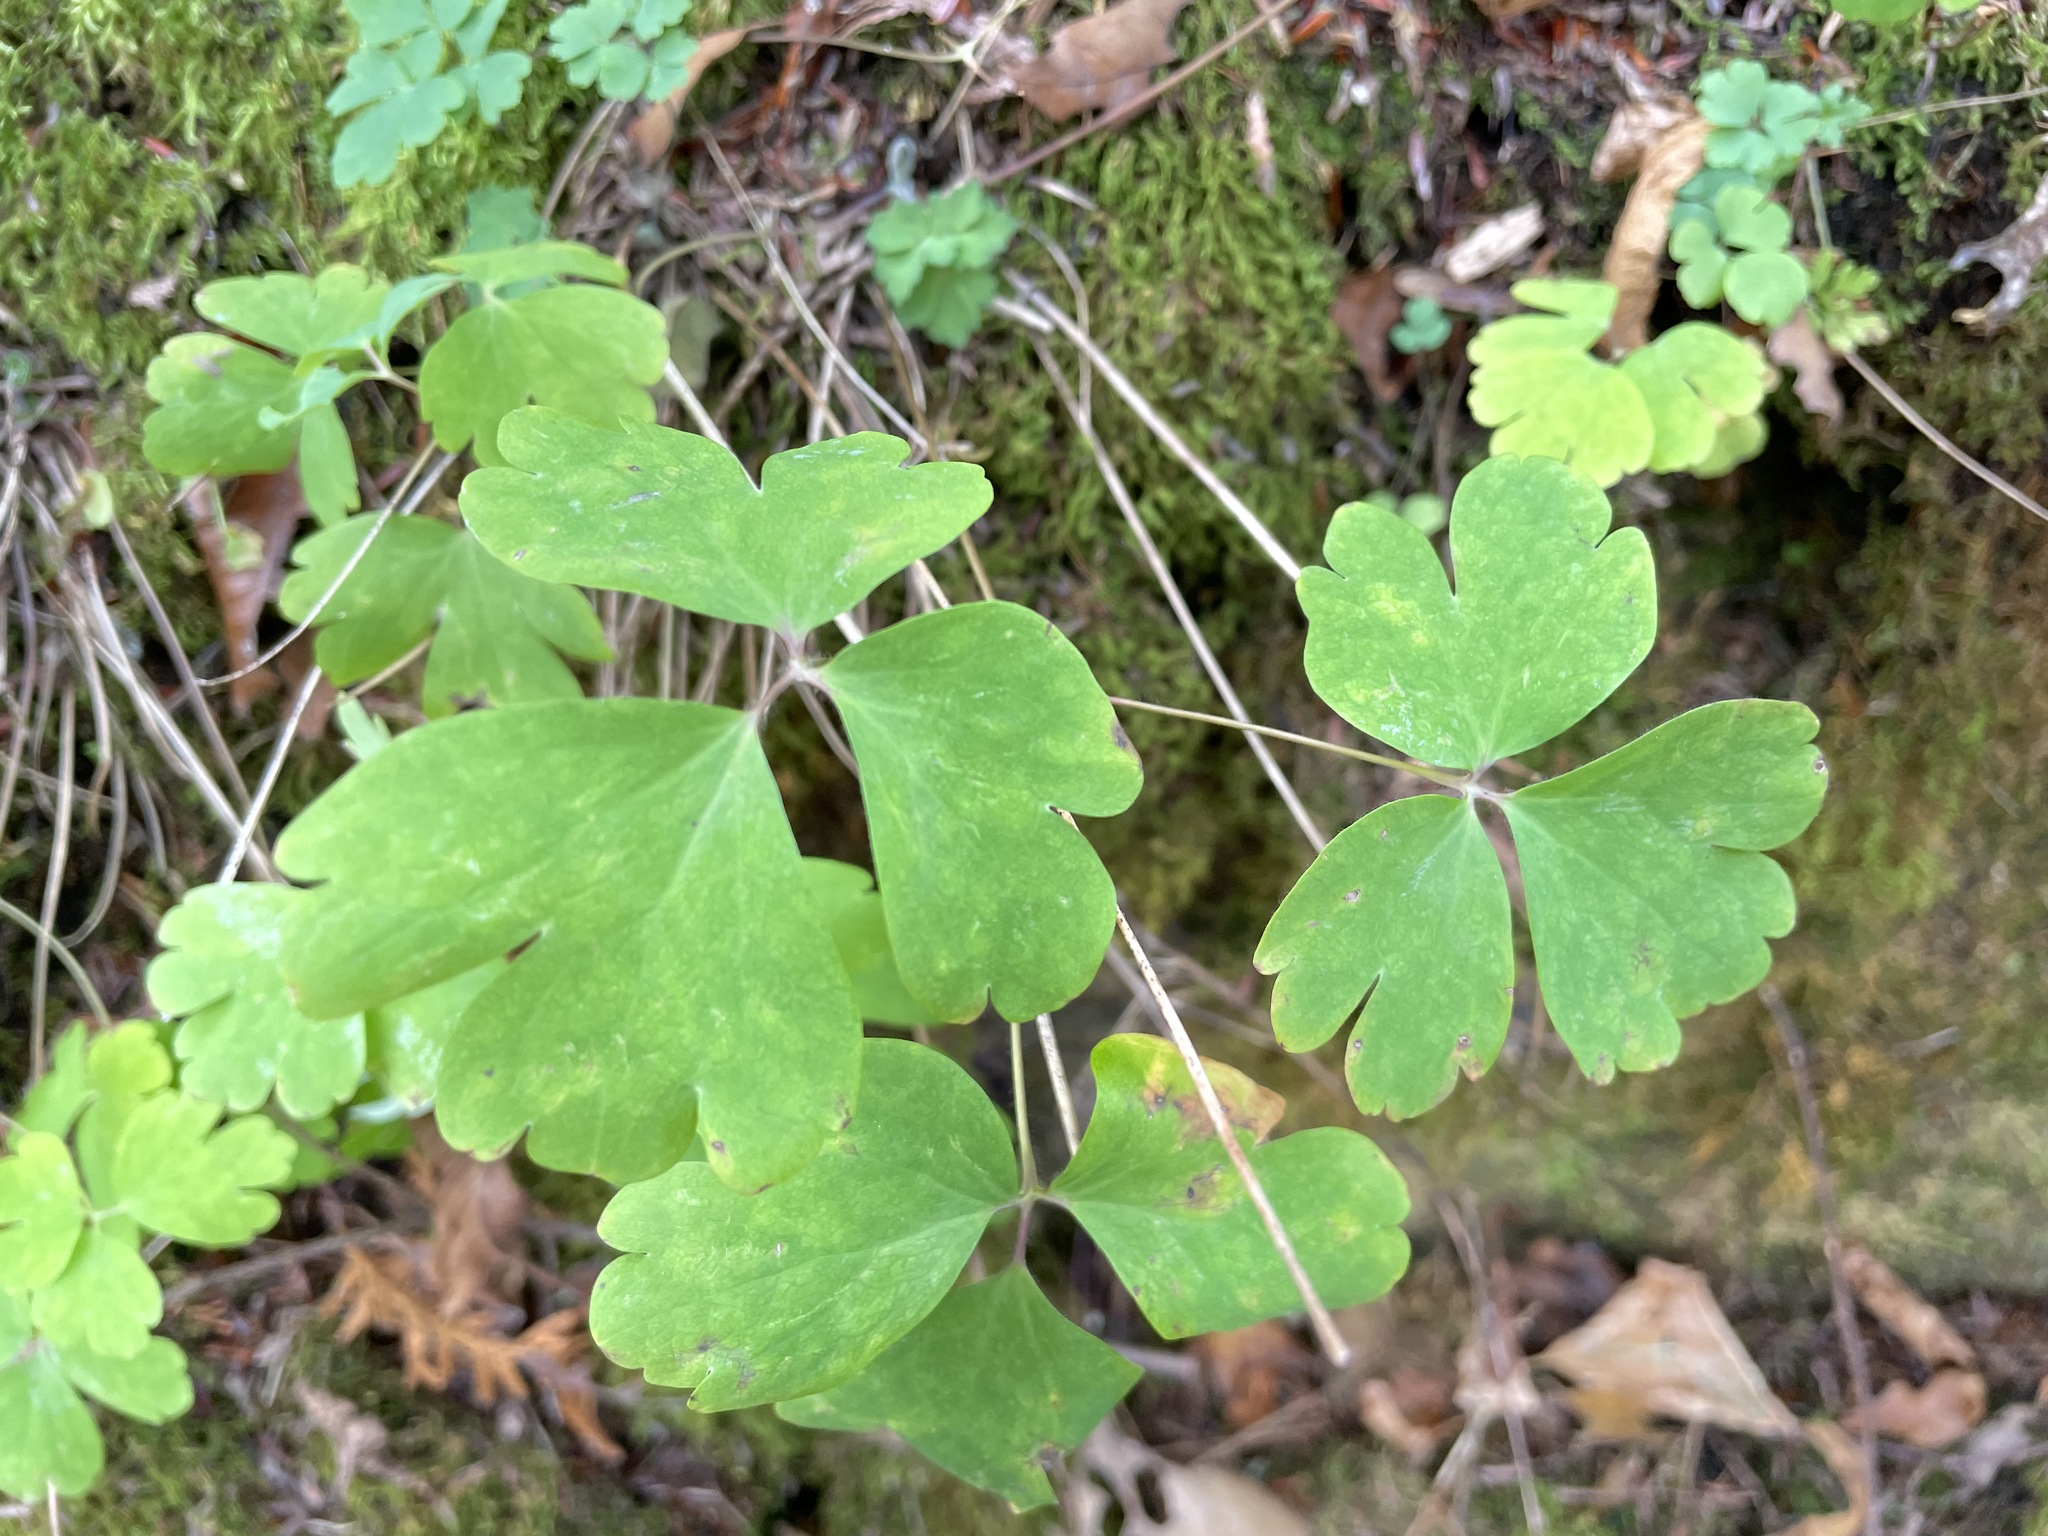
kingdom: Plantae
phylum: Tracheophyta
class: Magnoliopsida
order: Ranunculales
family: Ranunculaceae
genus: Aquilegia
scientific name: Aquilegia canadensis
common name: American columbine
